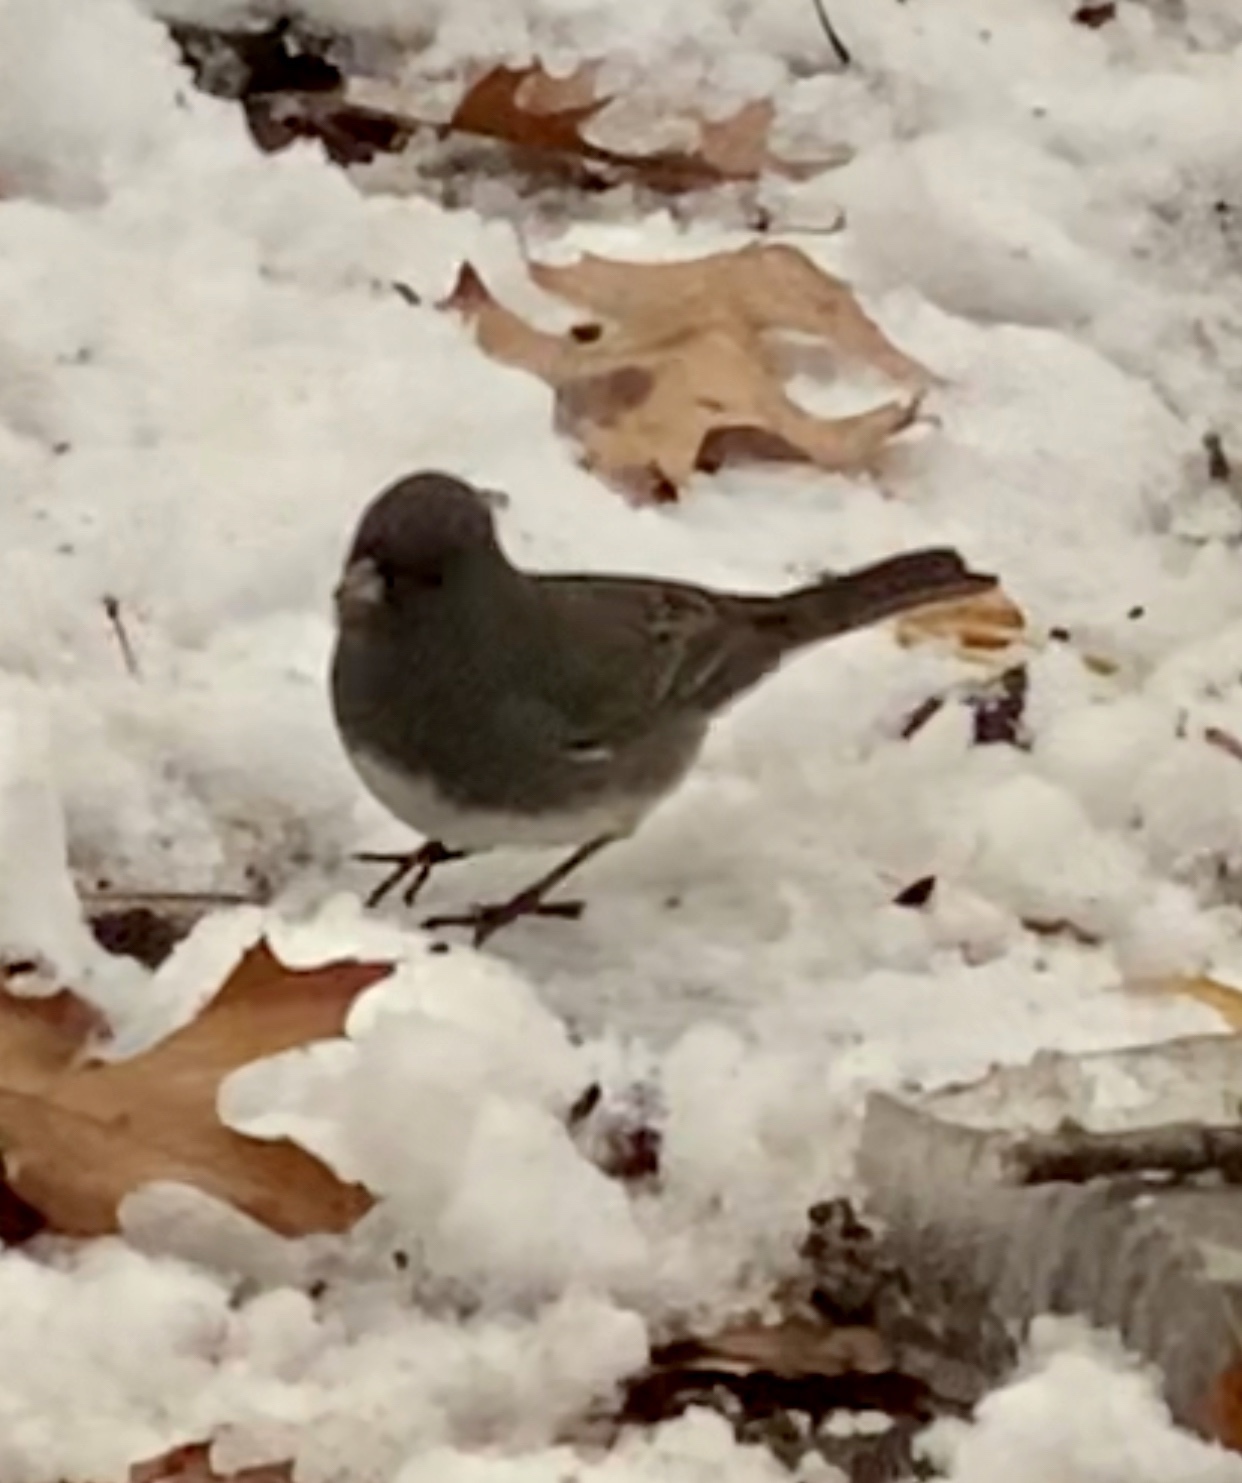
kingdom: Animalia
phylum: Chordata
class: Aves
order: Passeriformes
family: Passerellidae
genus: Junco
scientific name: Junco hyemalis
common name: Dark-eyed junco
